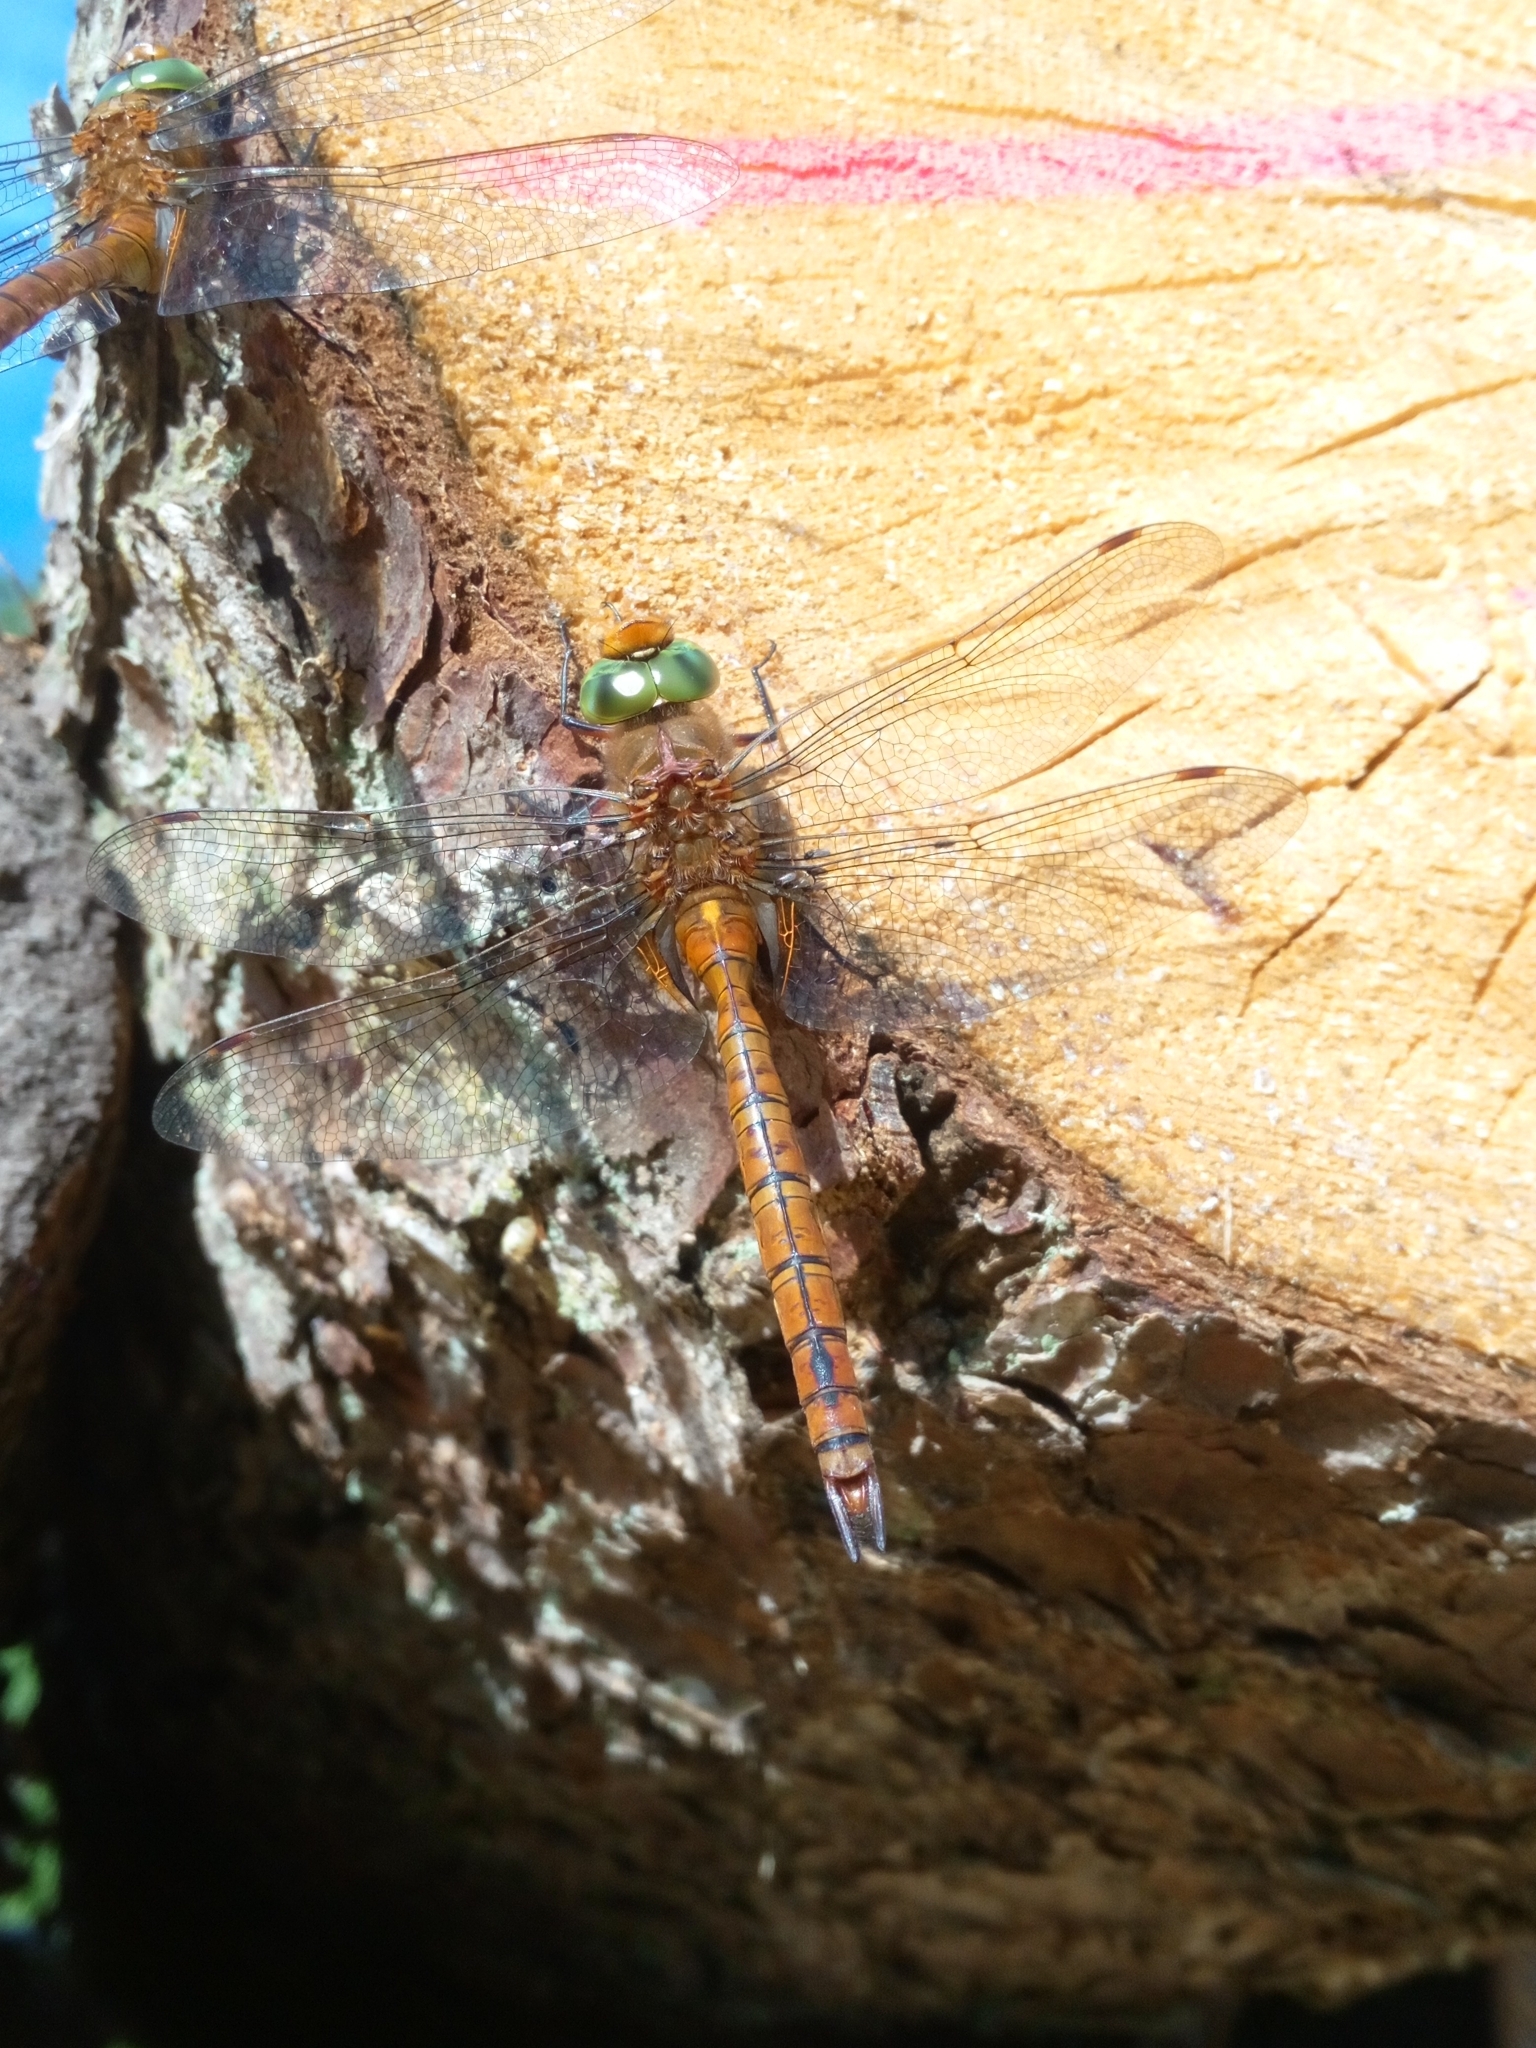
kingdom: Animalia
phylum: Arthropoda
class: Insecta
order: Odonata
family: Aeshnidae
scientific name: Aeshnidae
